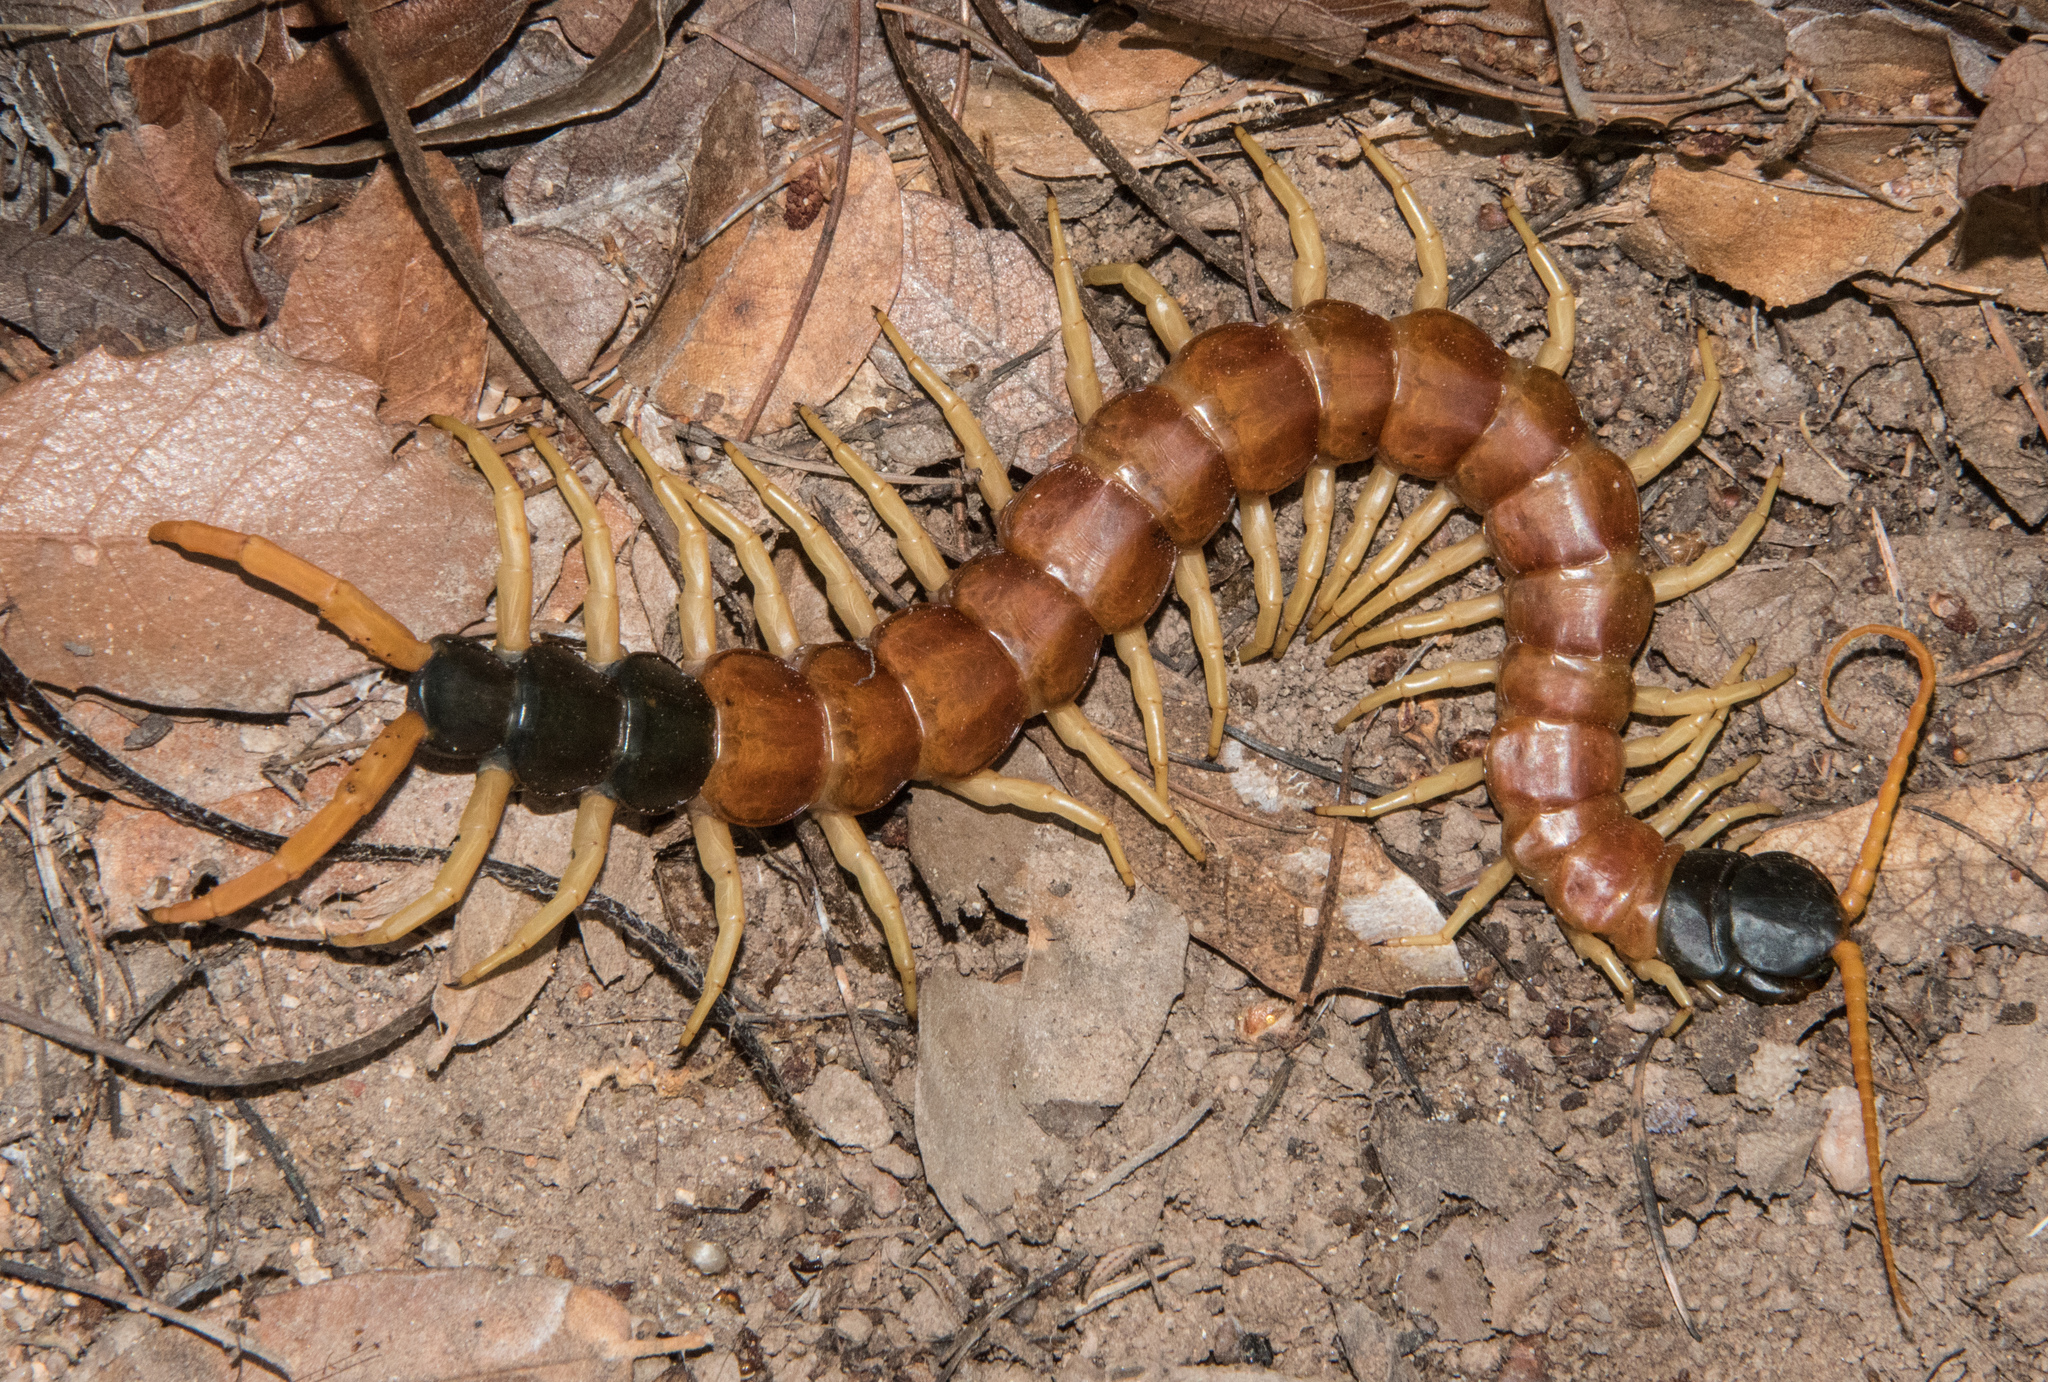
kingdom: Animalia
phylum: Arthropoda
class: Chilopoda
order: Scolopendromorpha
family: Scolopendridae
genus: Scolopendra
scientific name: Scolopendra heros
